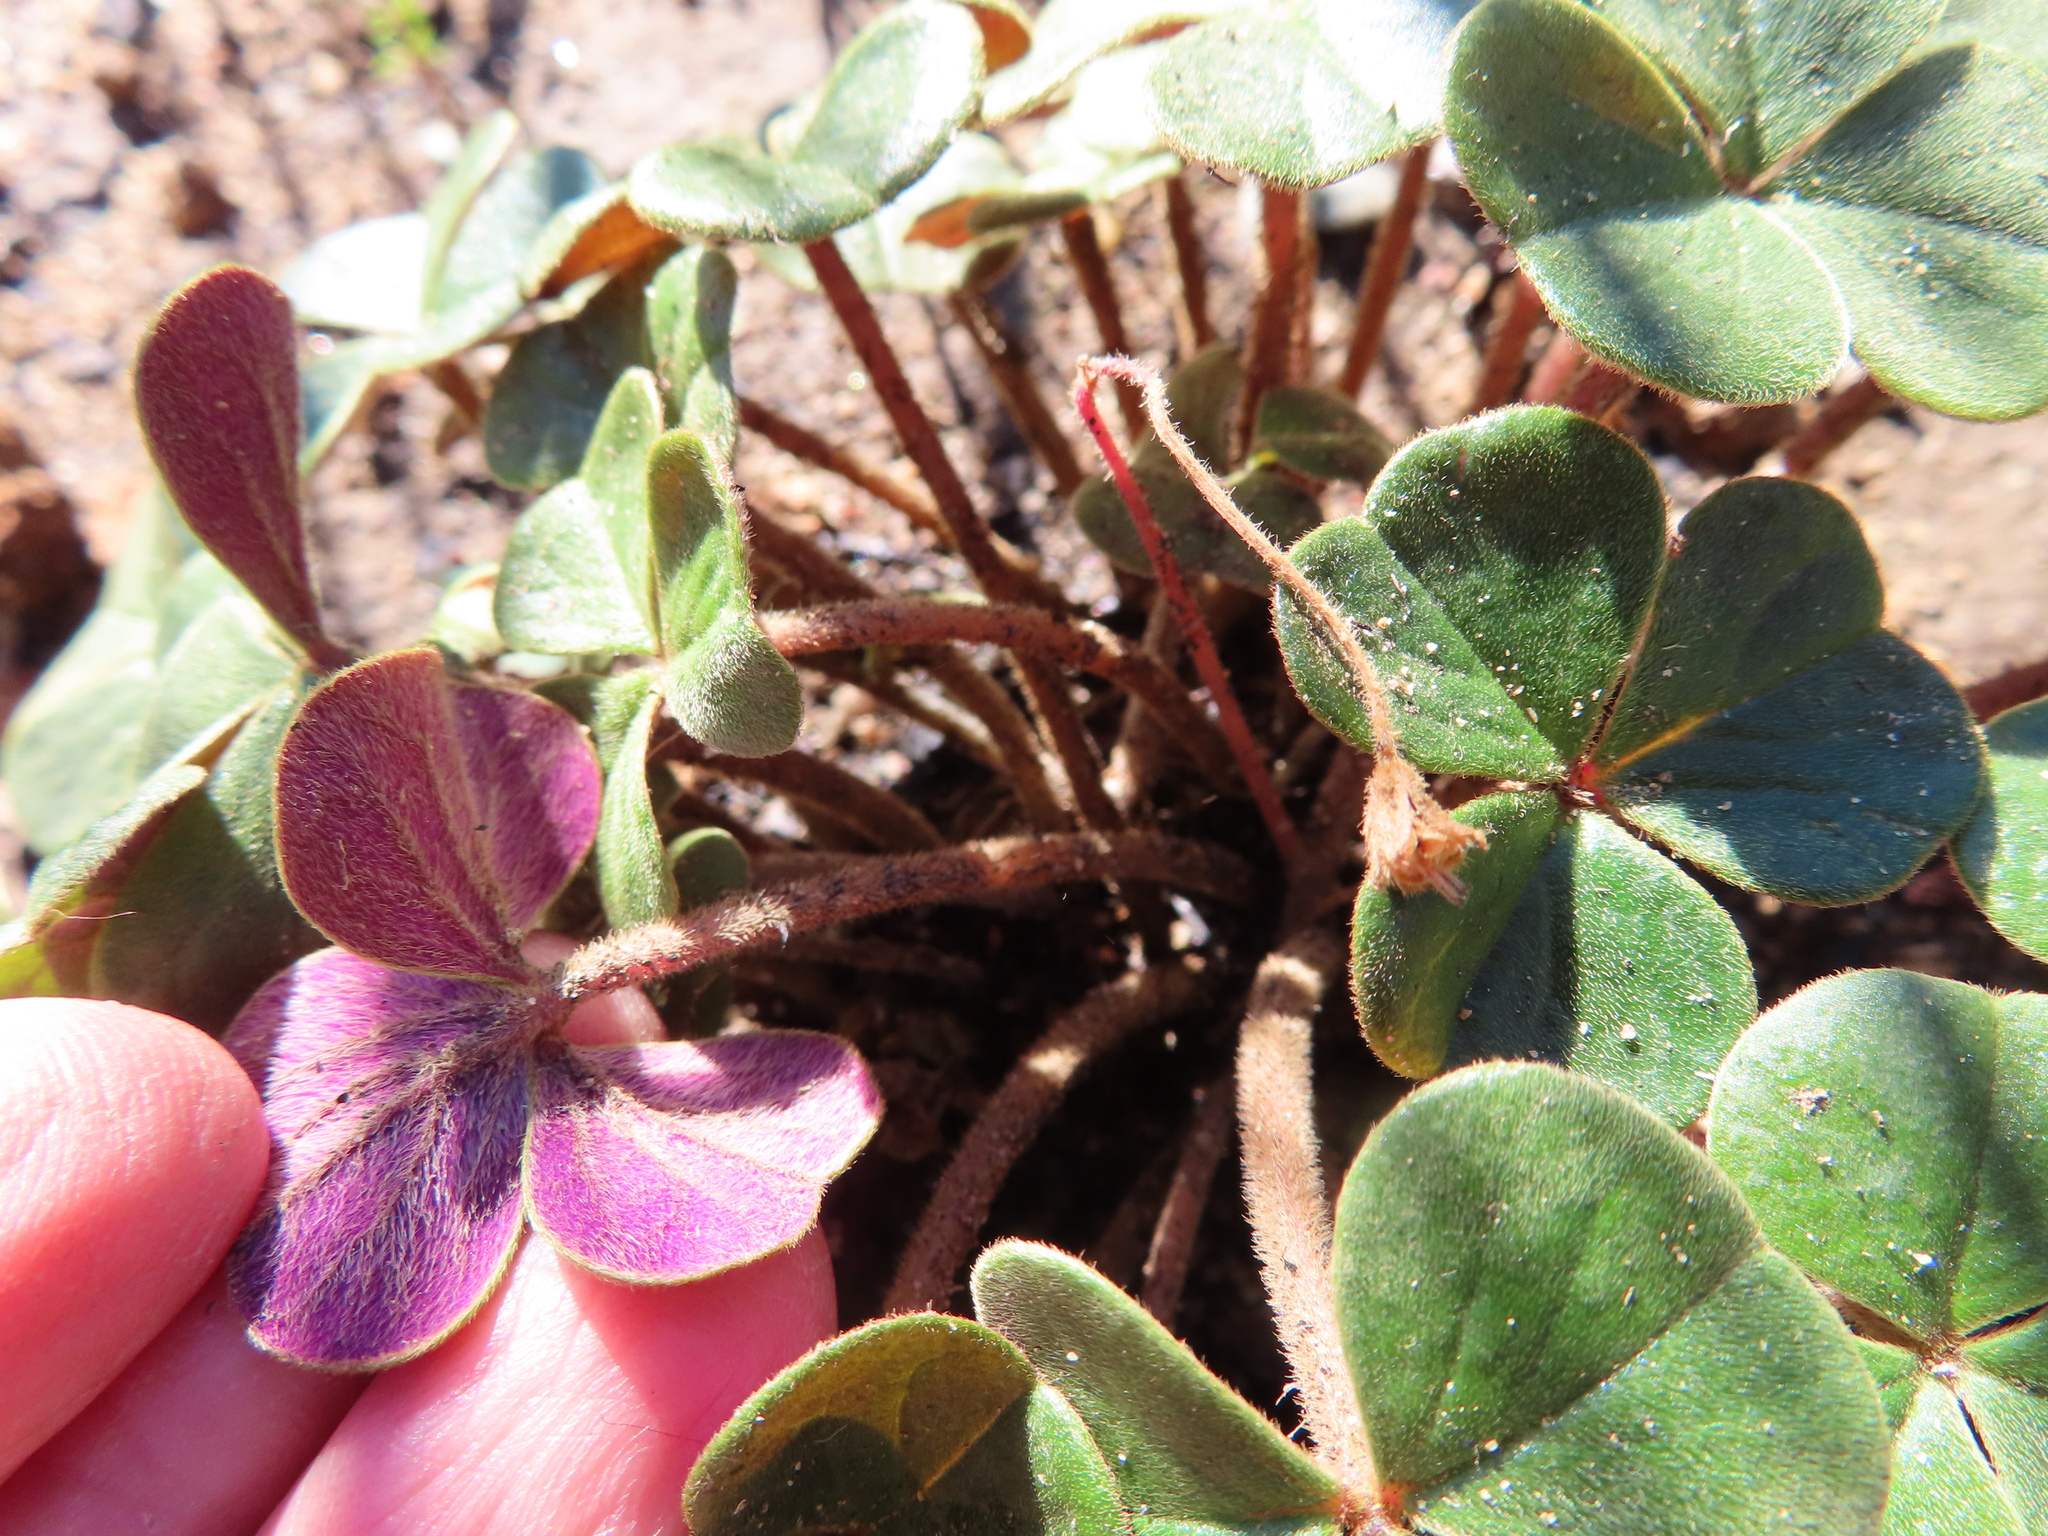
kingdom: Plantae
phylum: Tracheophyta
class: Magnoliopsida
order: Oxalidales
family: Oxalidaceae
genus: Oxalis
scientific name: Oxalis truncatula
